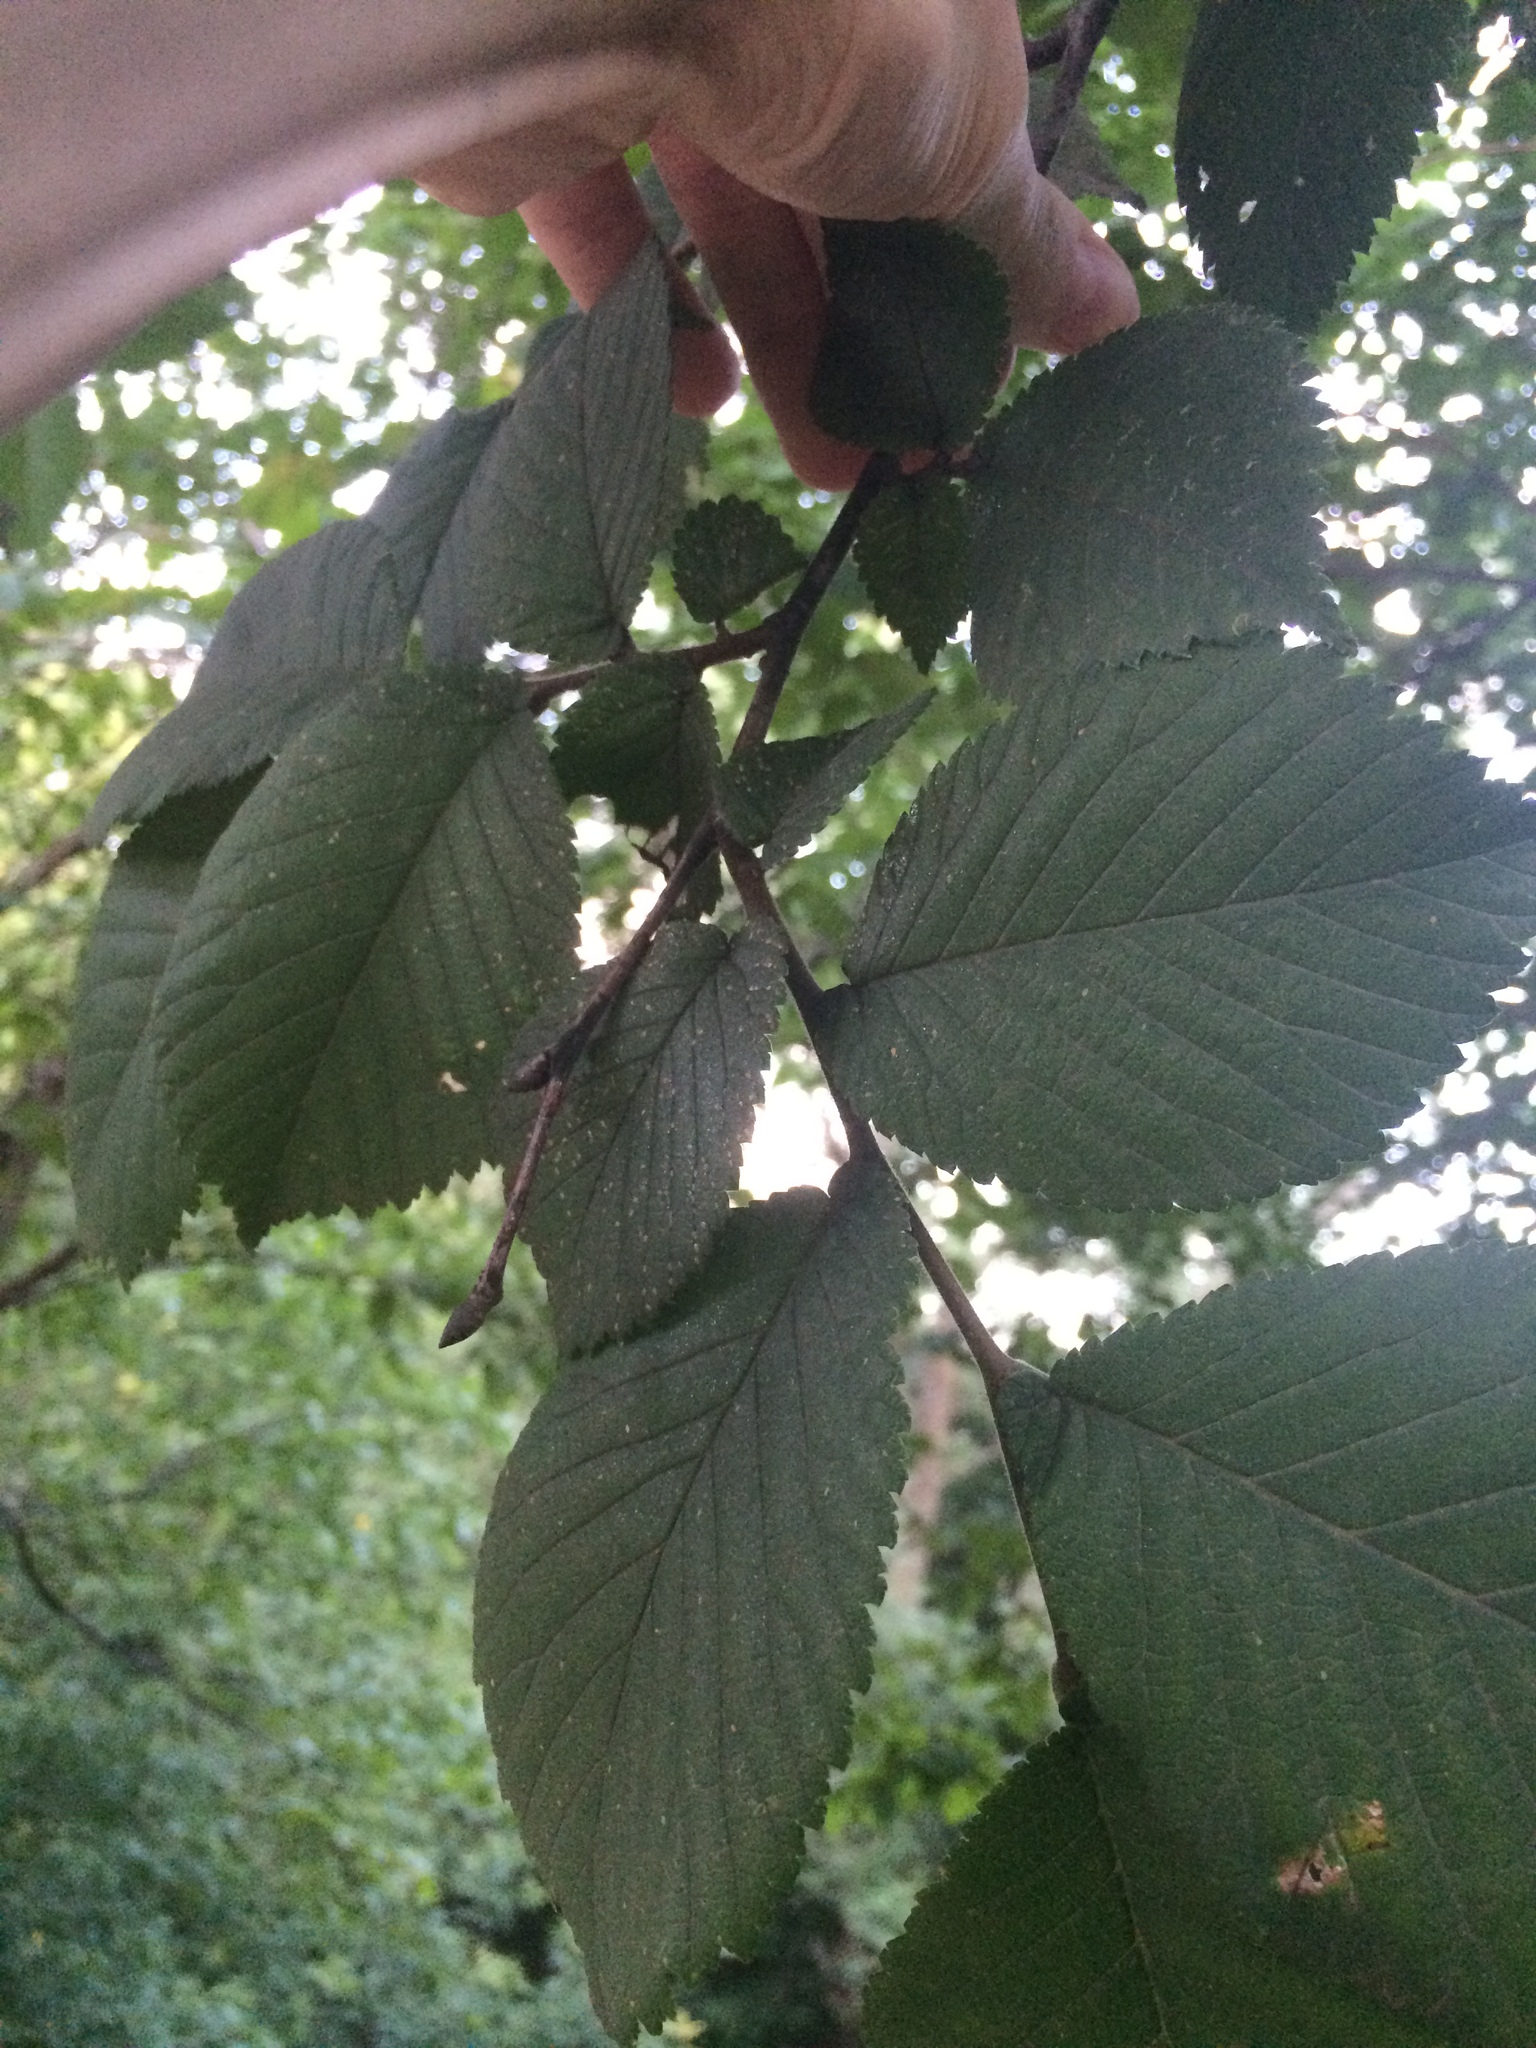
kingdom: Plantae
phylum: Tracheophyta
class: Magnoliopsida
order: Rosales
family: Ulmaceae
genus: Ulmus
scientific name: Ulmus glabra
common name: Wych elm
